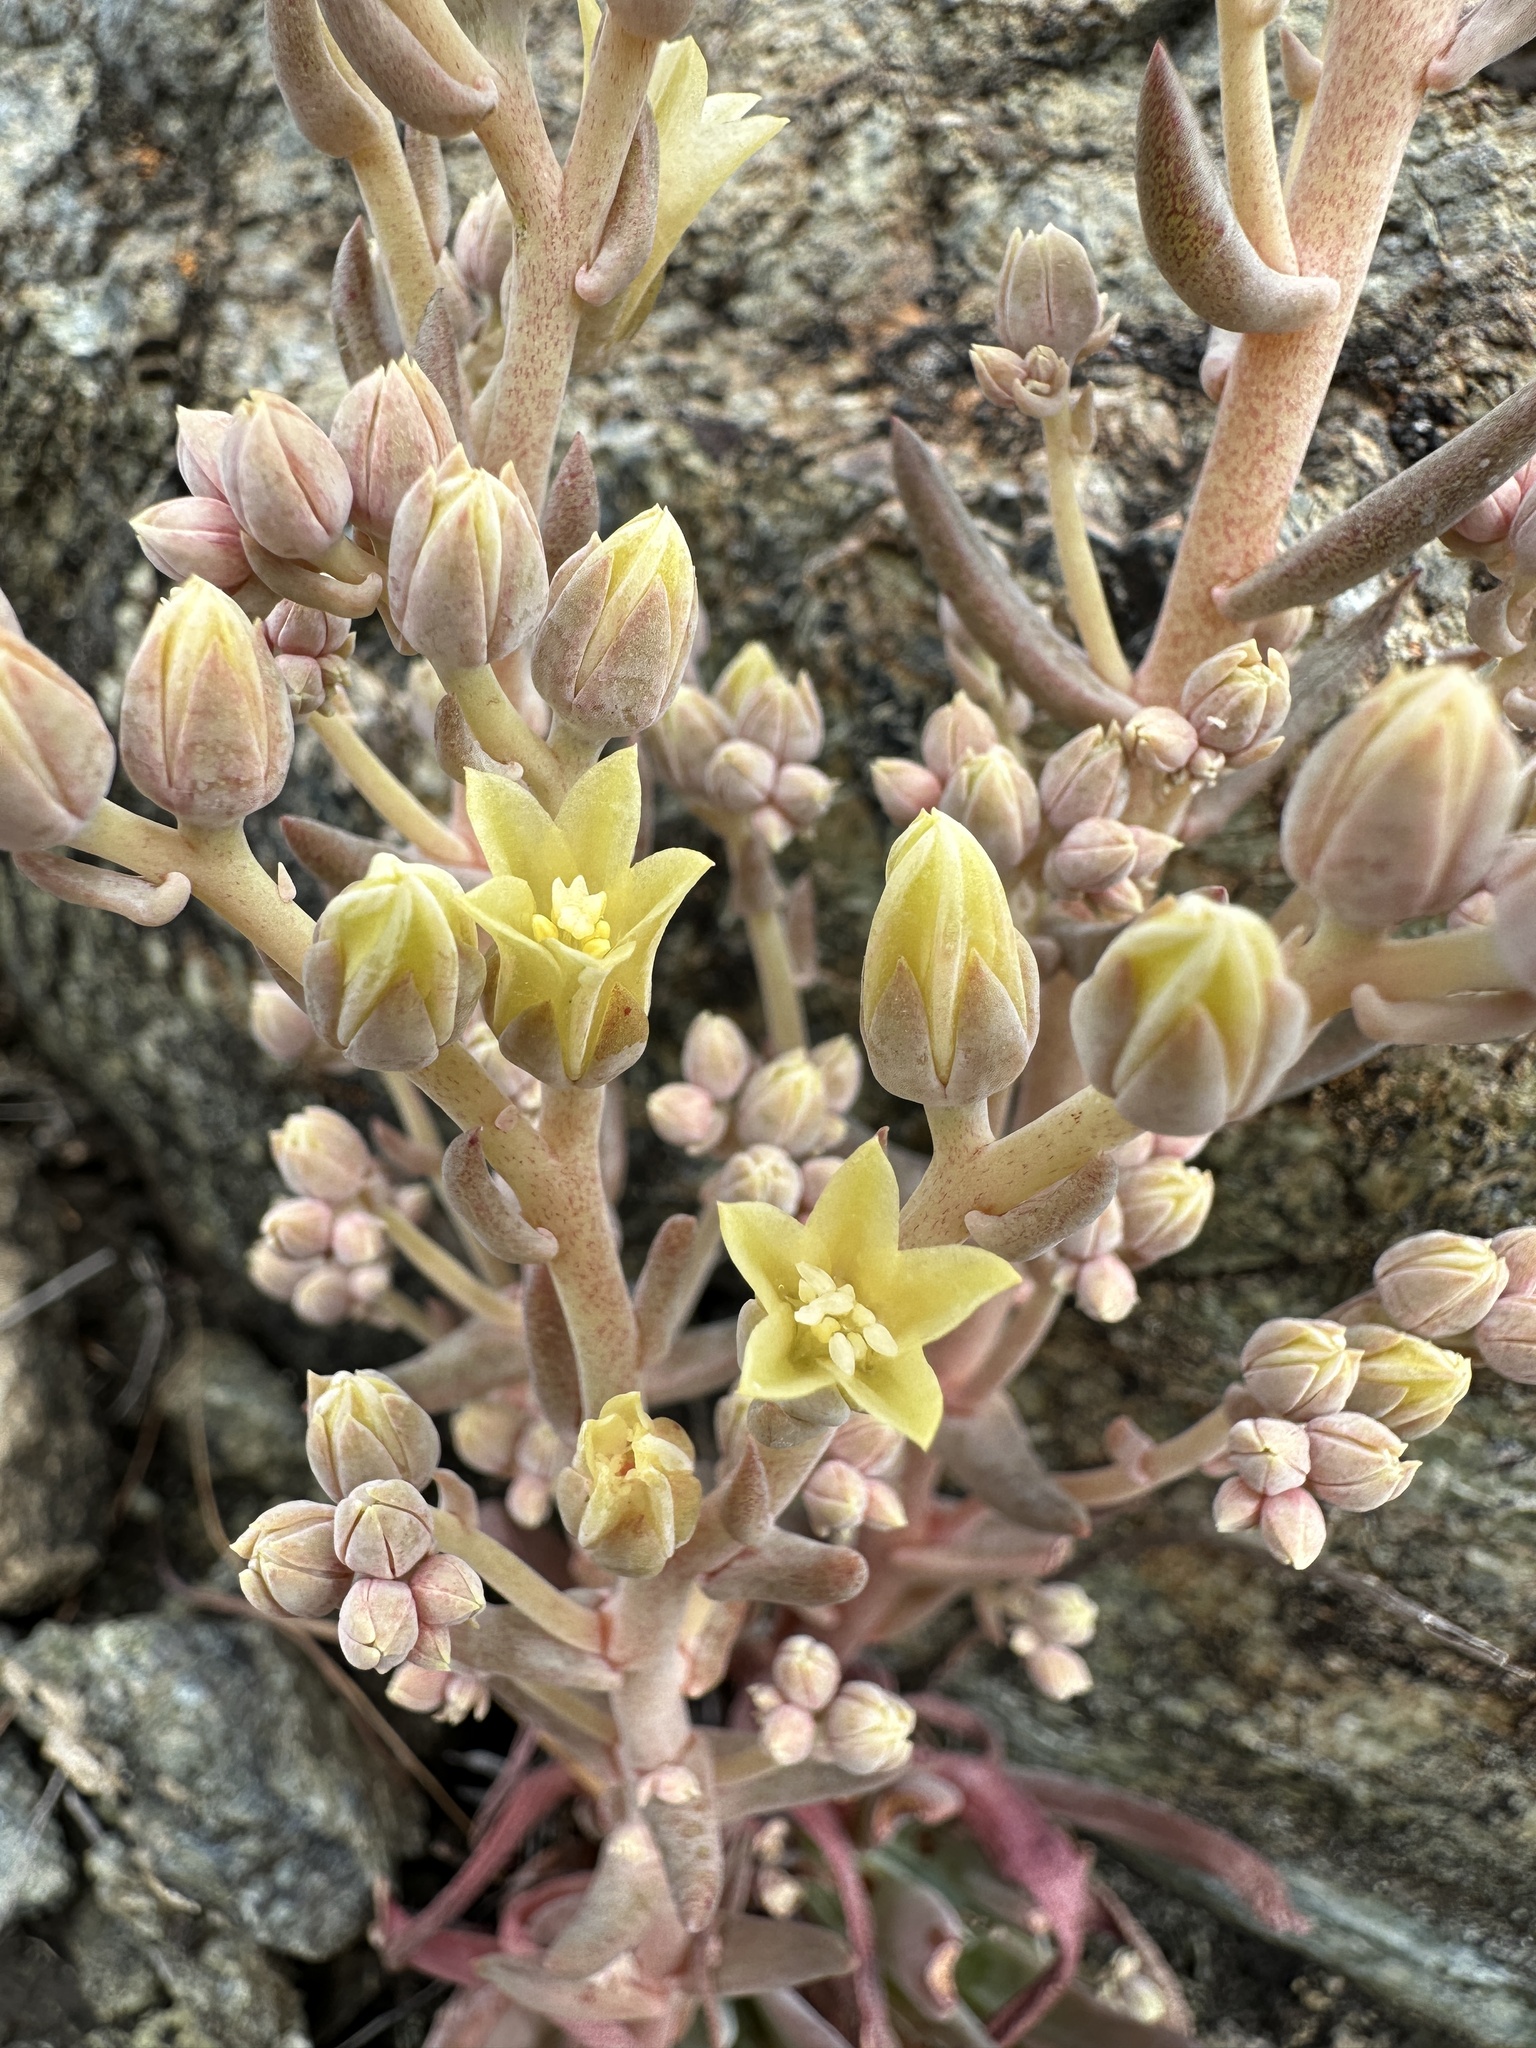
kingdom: Plantae
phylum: Tracheophyta
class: Magnoliopsida
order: Saxifragales
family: Crassulaceae
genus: Dudleya
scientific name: Dudleya abramsii
